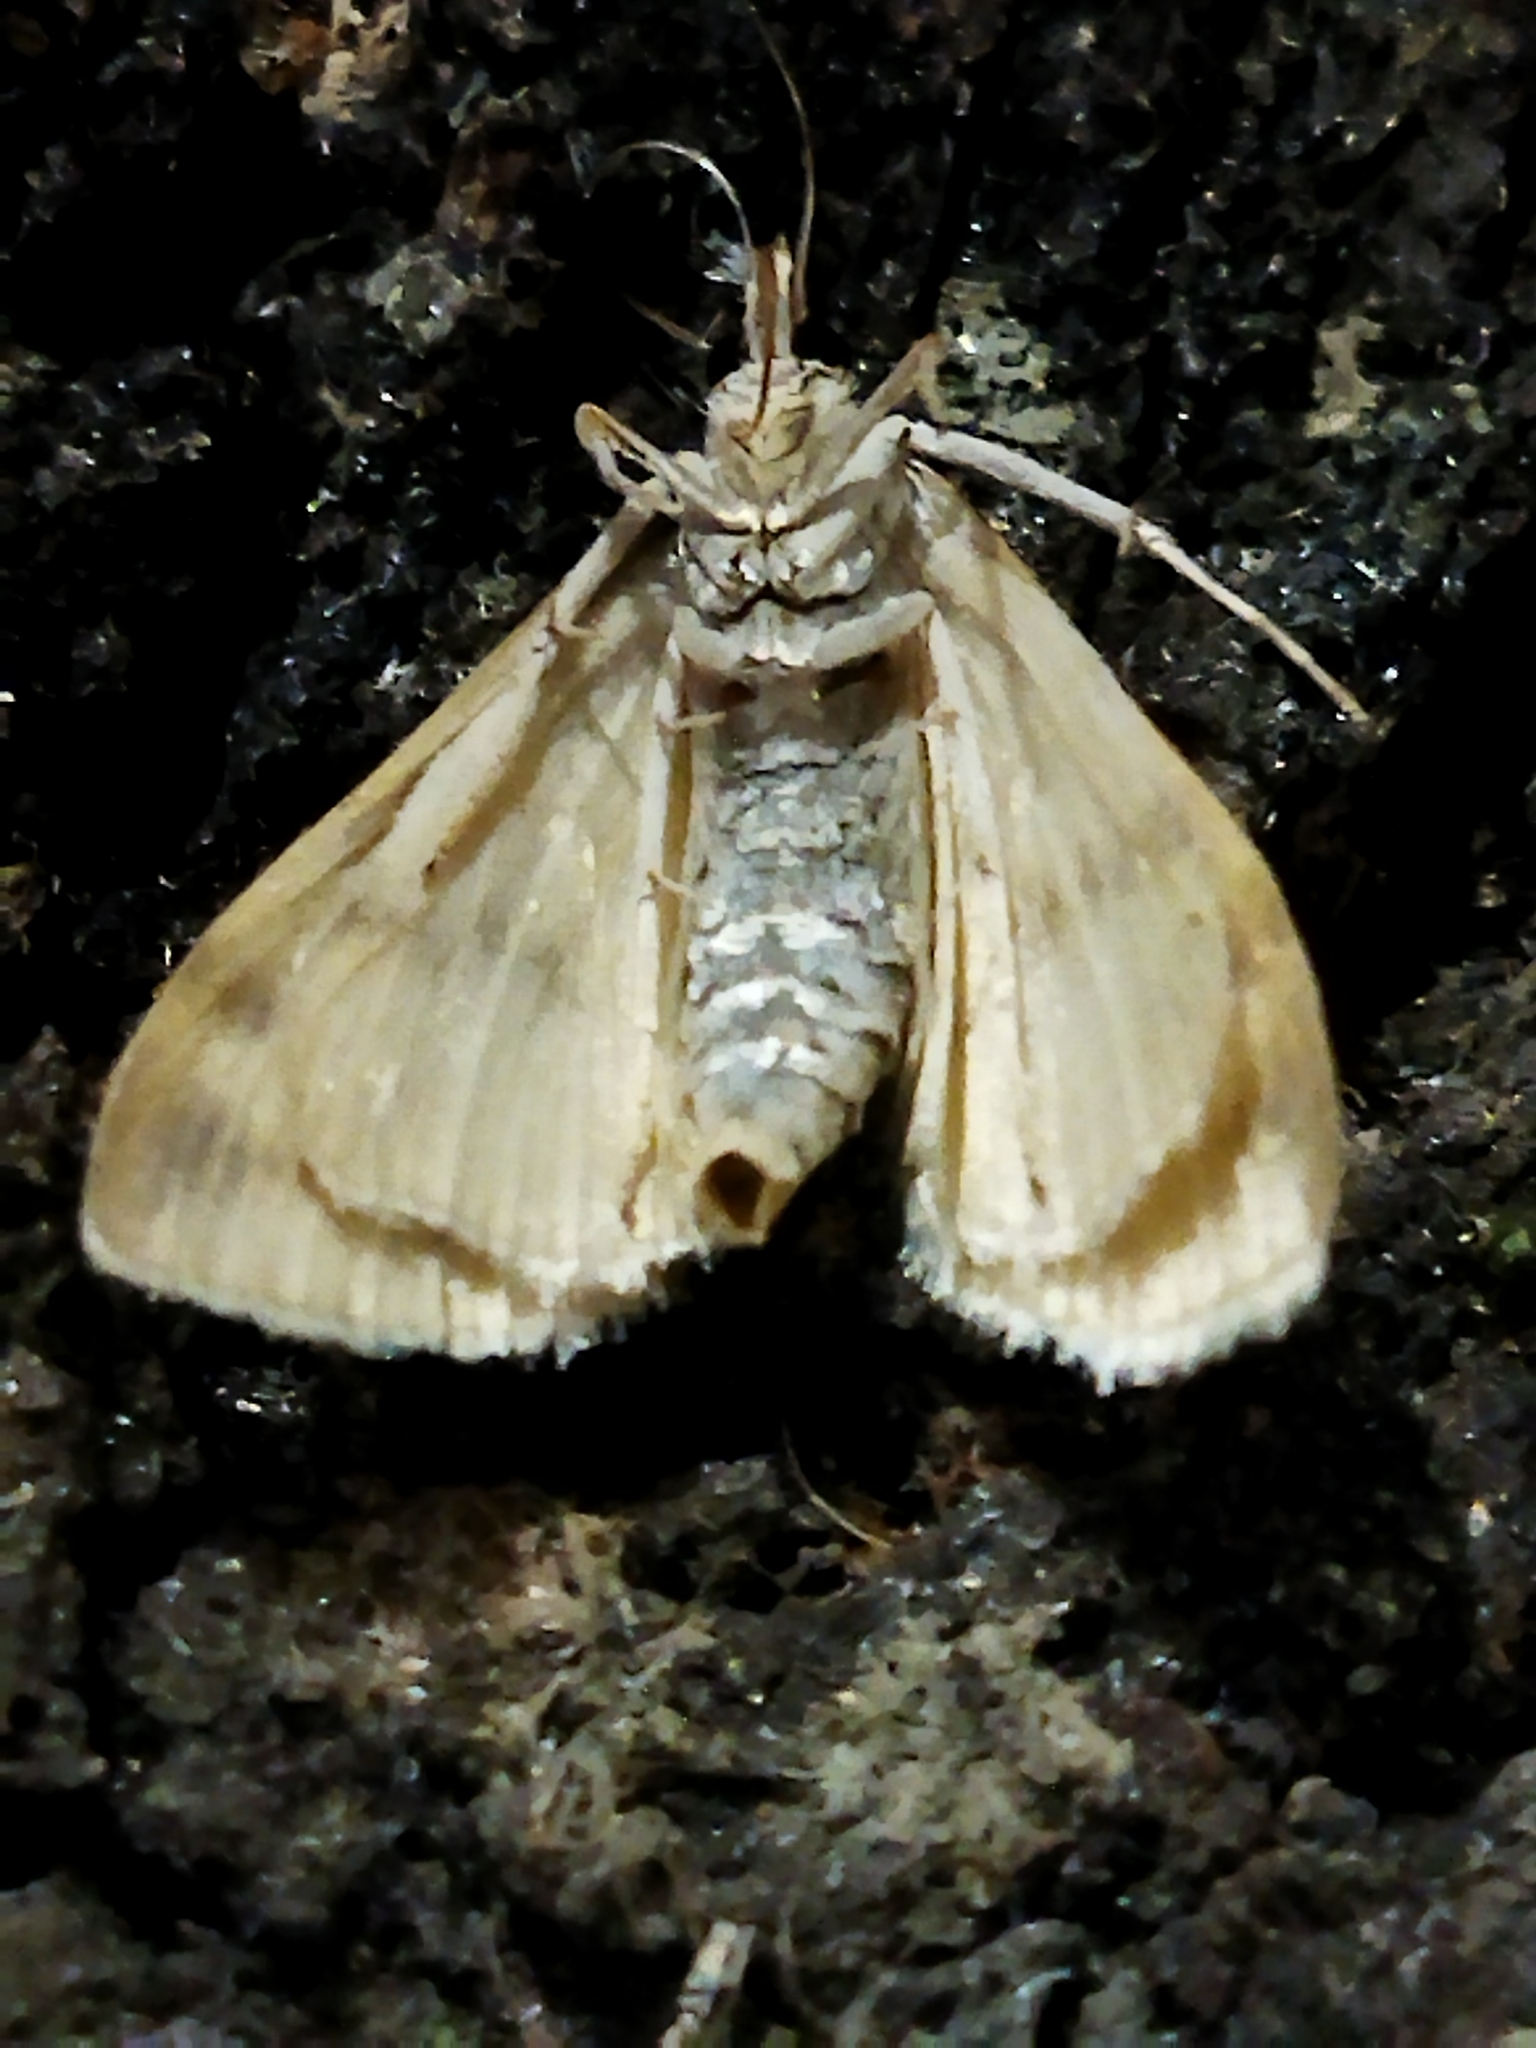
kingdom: Animalia
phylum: Arthropoda
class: Insecta
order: Lepidoptera
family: Crambidae
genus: Ostrinia
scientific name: Ostrinia nubilalis
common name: European corn borer
